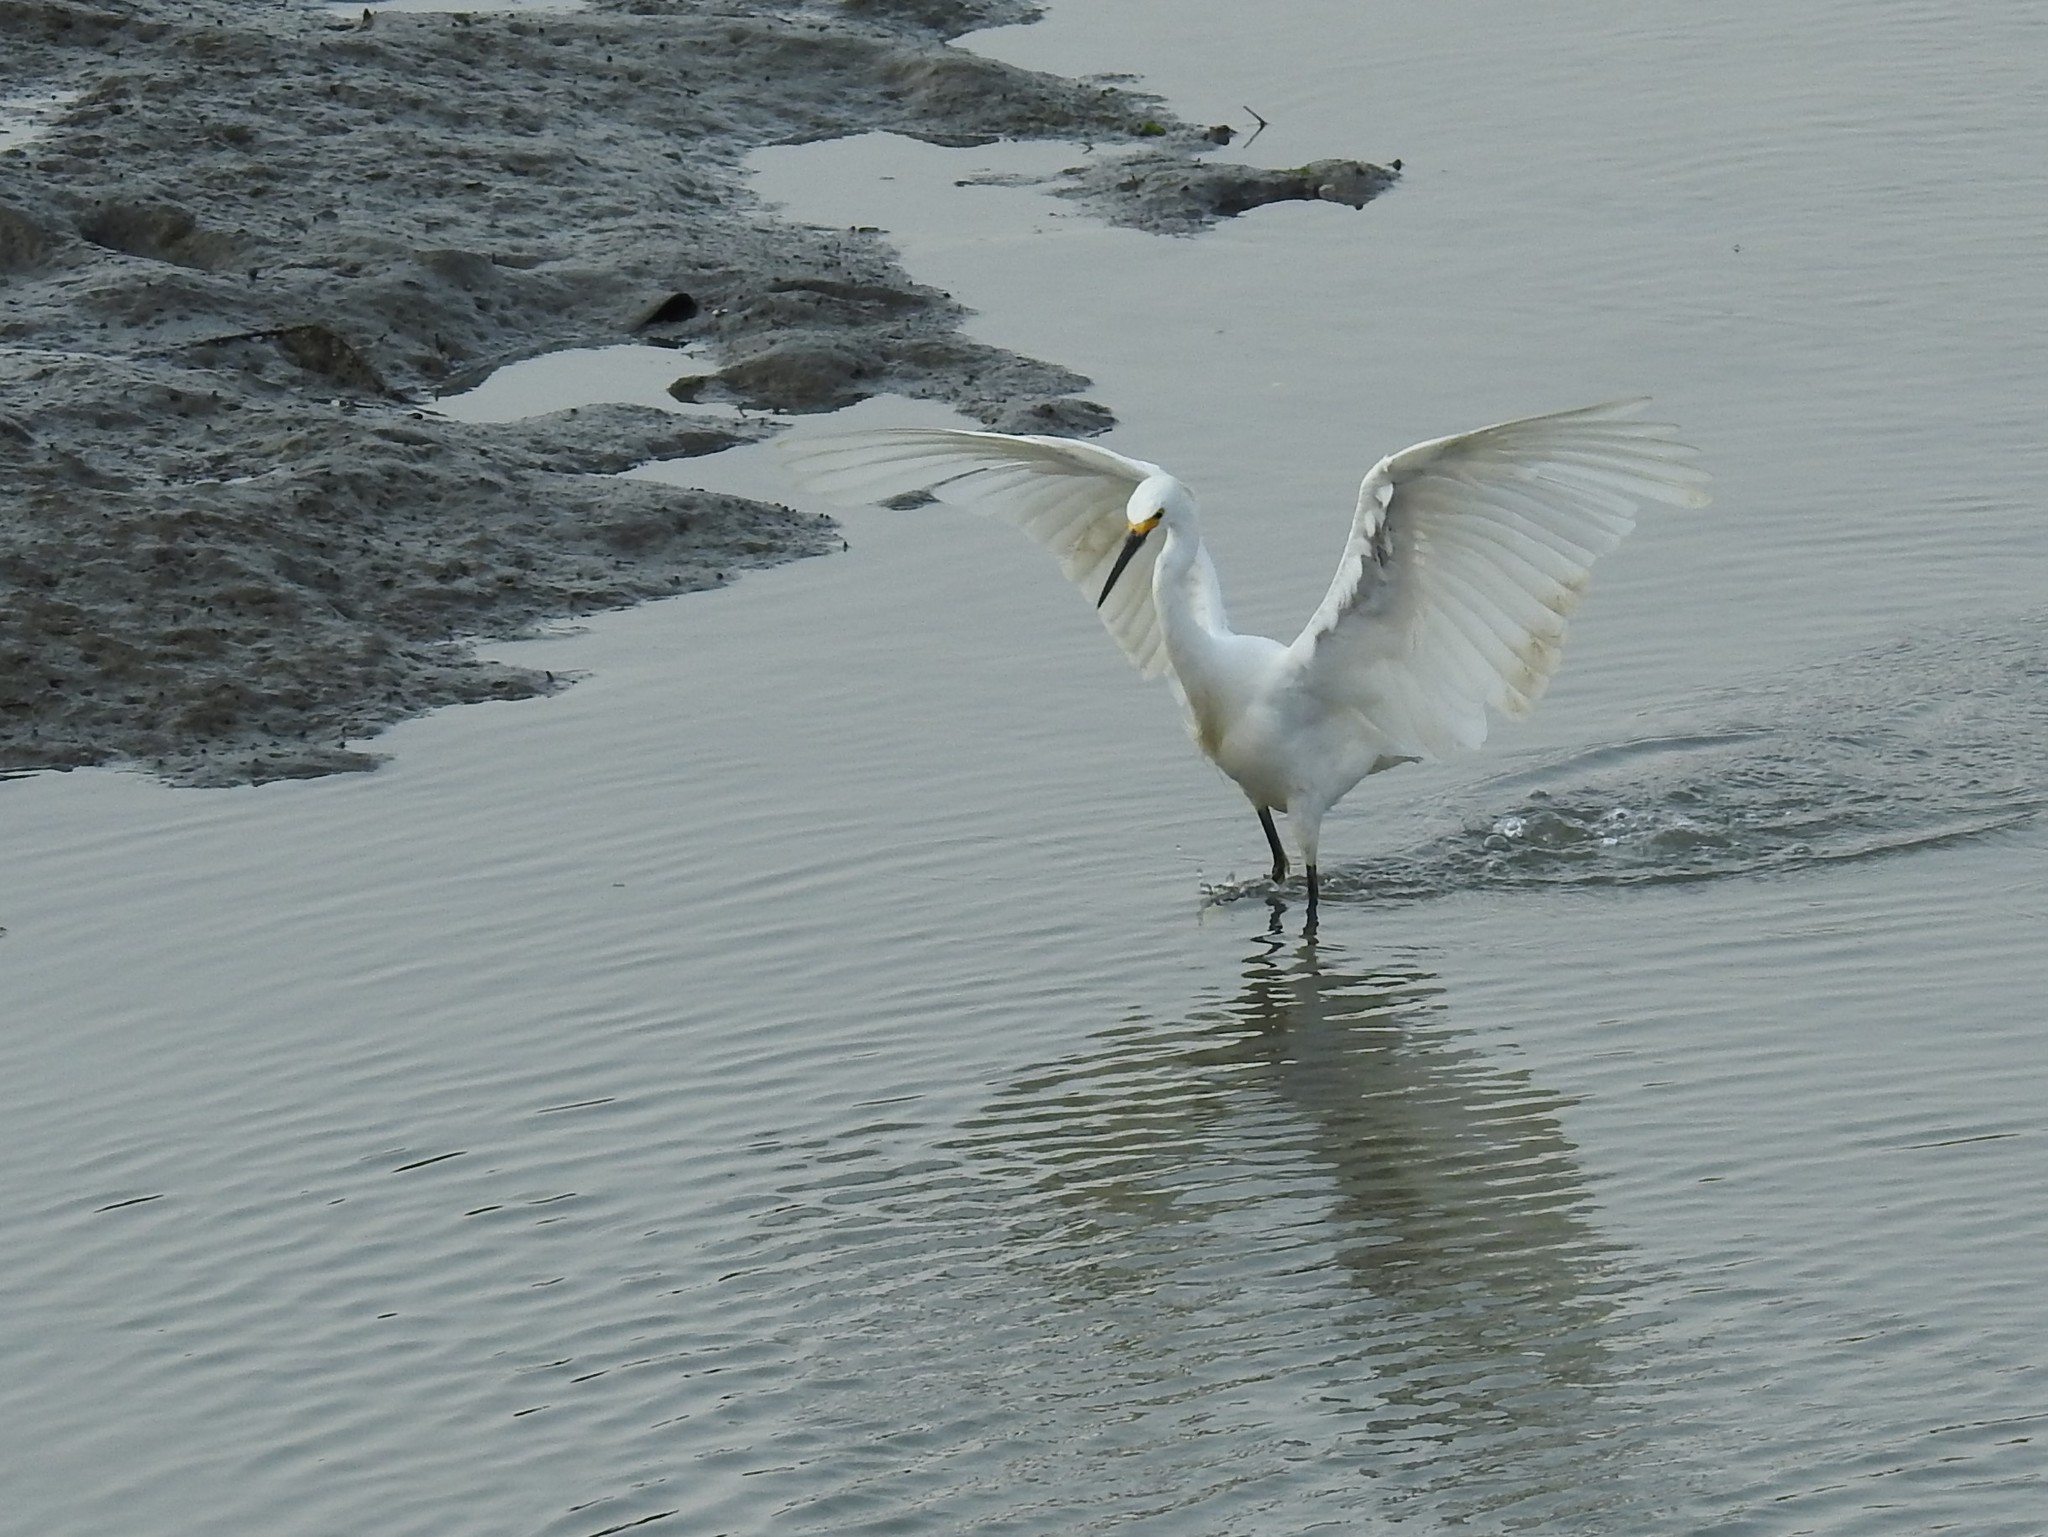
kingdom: Animalia
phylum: Chordata
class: Aves
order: Pelecaniformes
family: Ardeidae
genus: Egretta
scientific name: Egretta thula
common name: Snowy egret
